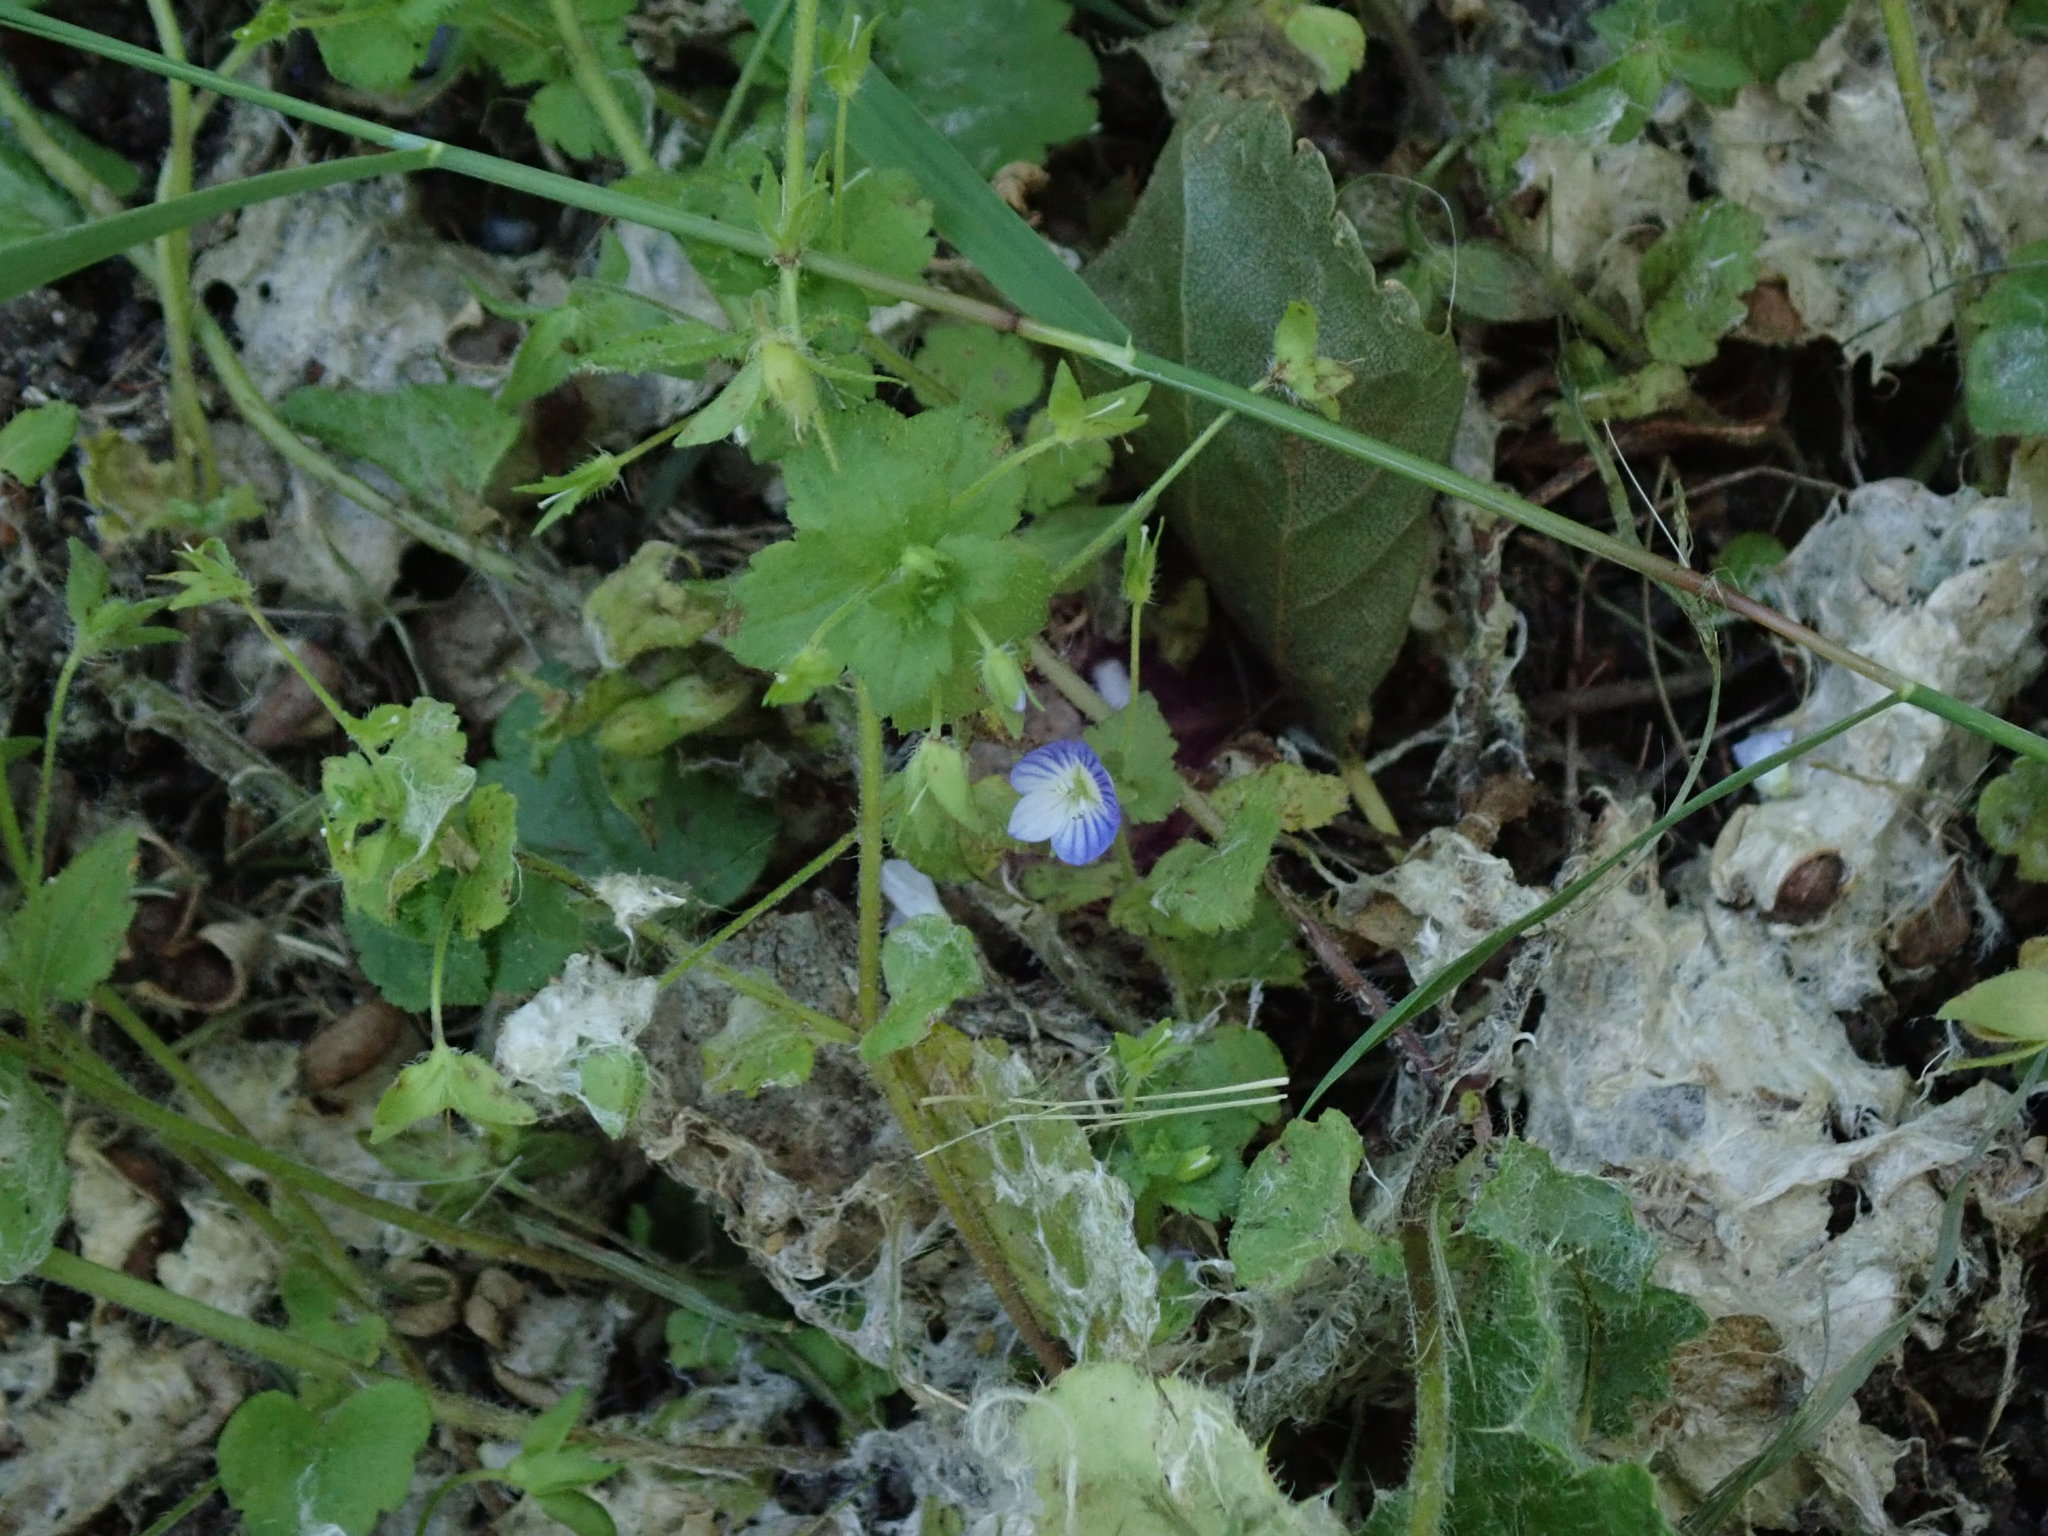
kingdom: Plantae
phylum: Tracheophyta
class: Magnoliopsida
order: Lamiales
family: Plantaginaceae
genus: Veronica
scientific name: Veronica persica
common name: Common field-speedwell
